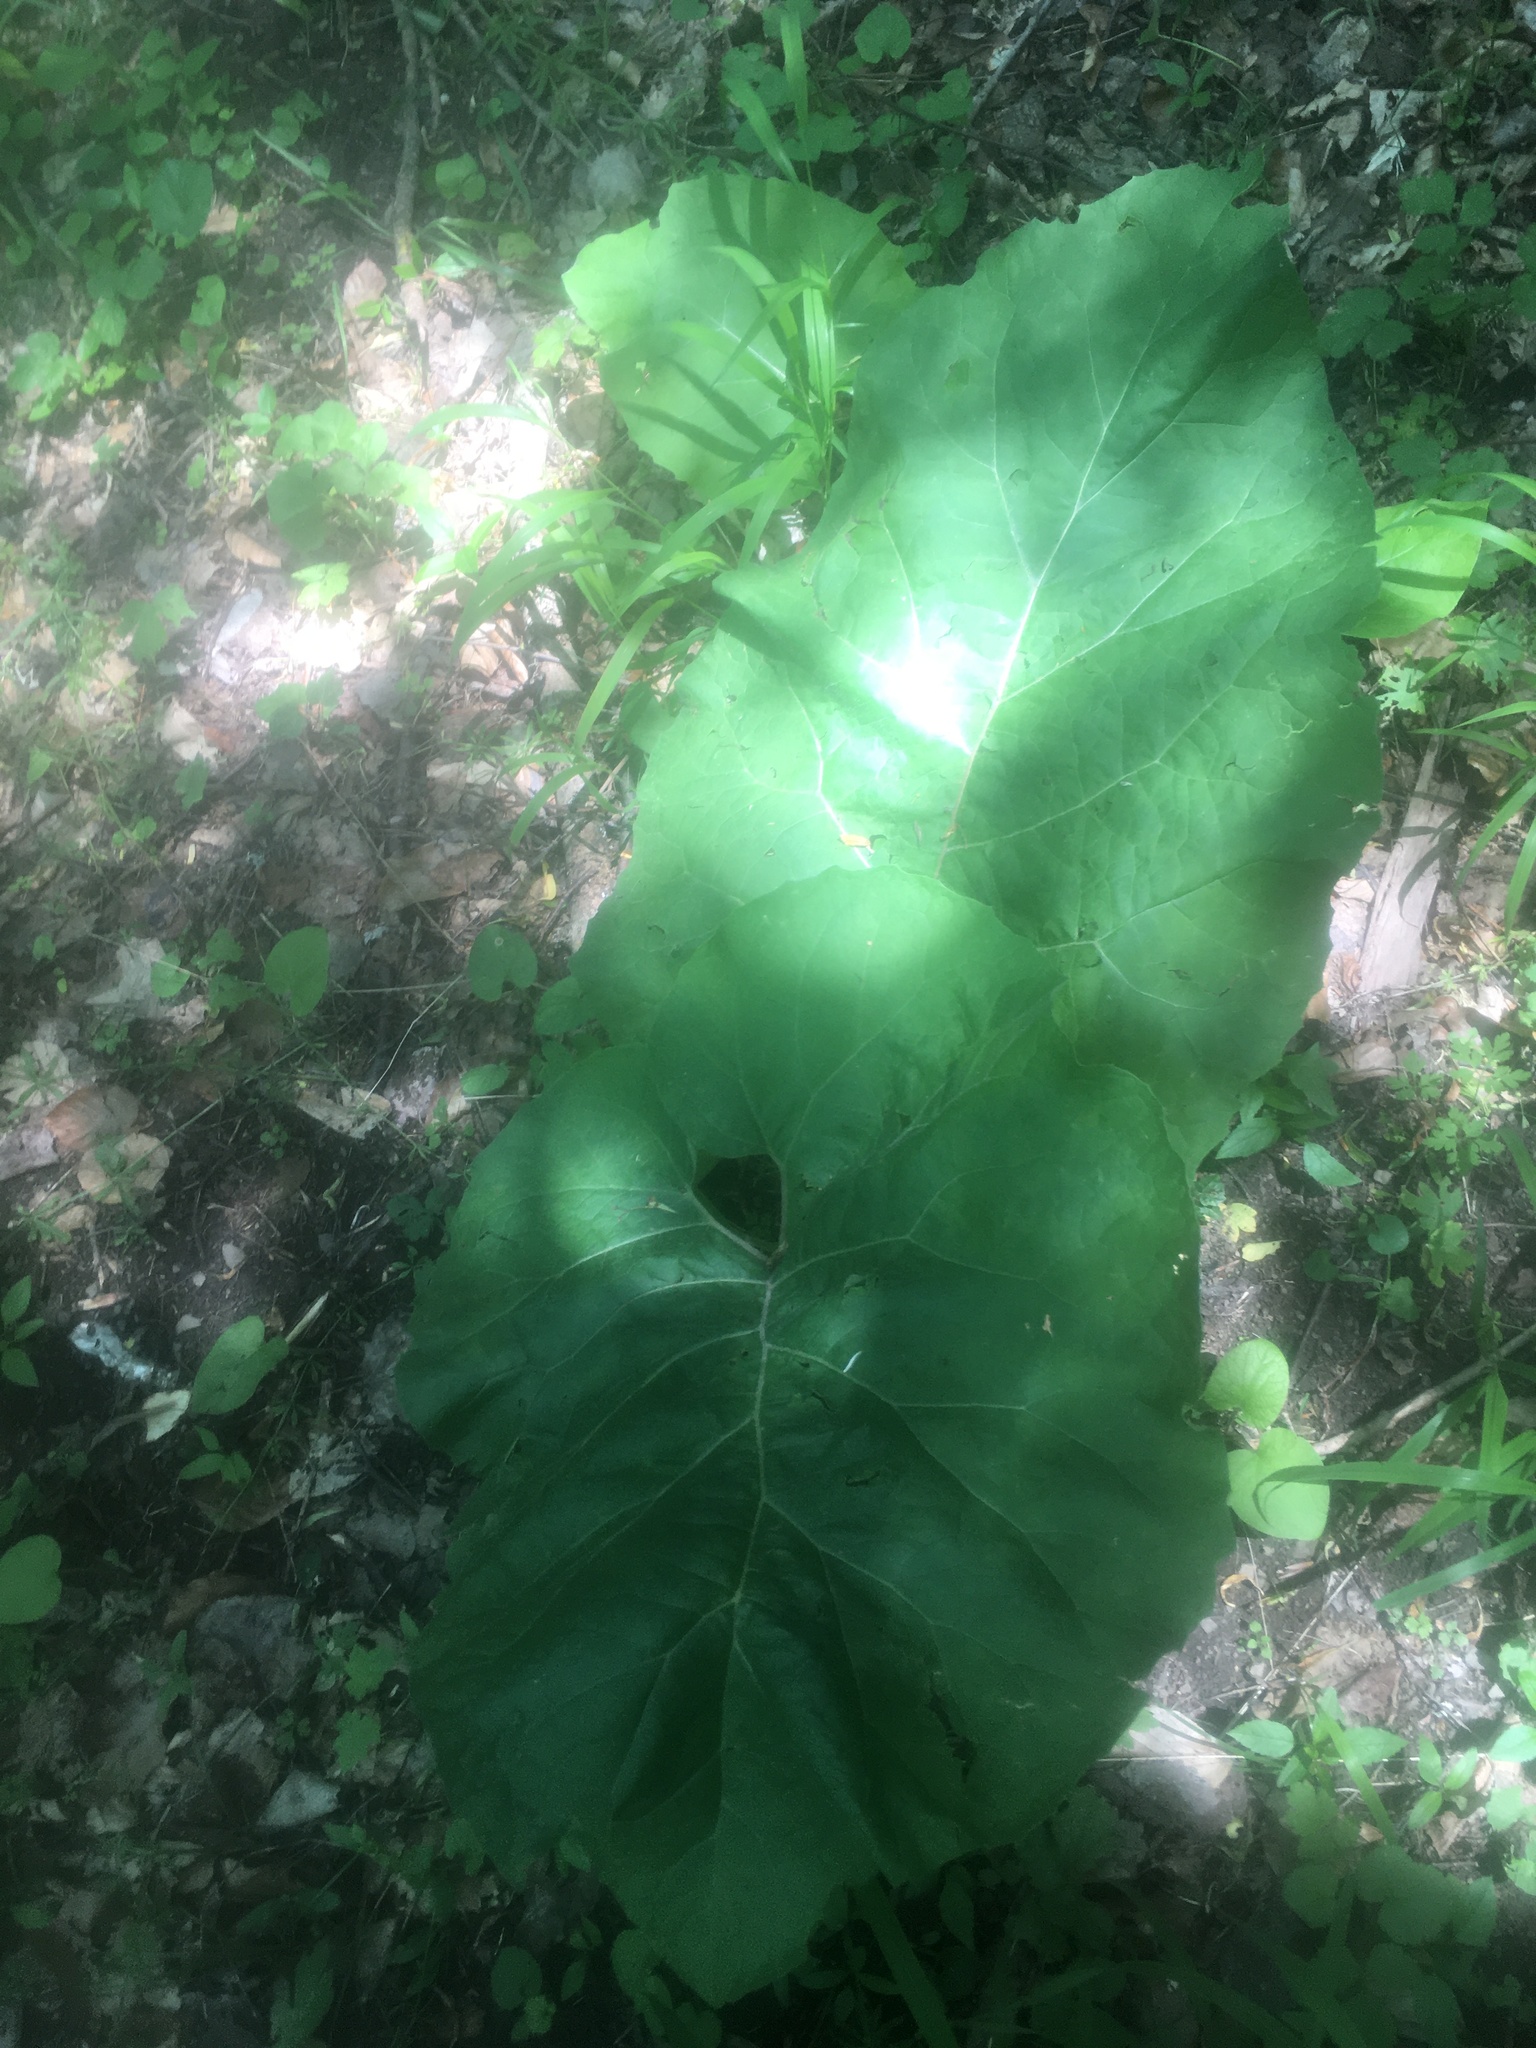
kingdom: Plantae
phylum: Tracheophyta
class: Magnoliopsida
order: Asterales
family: Asteraceae
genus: Arctium
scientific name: Arctium
